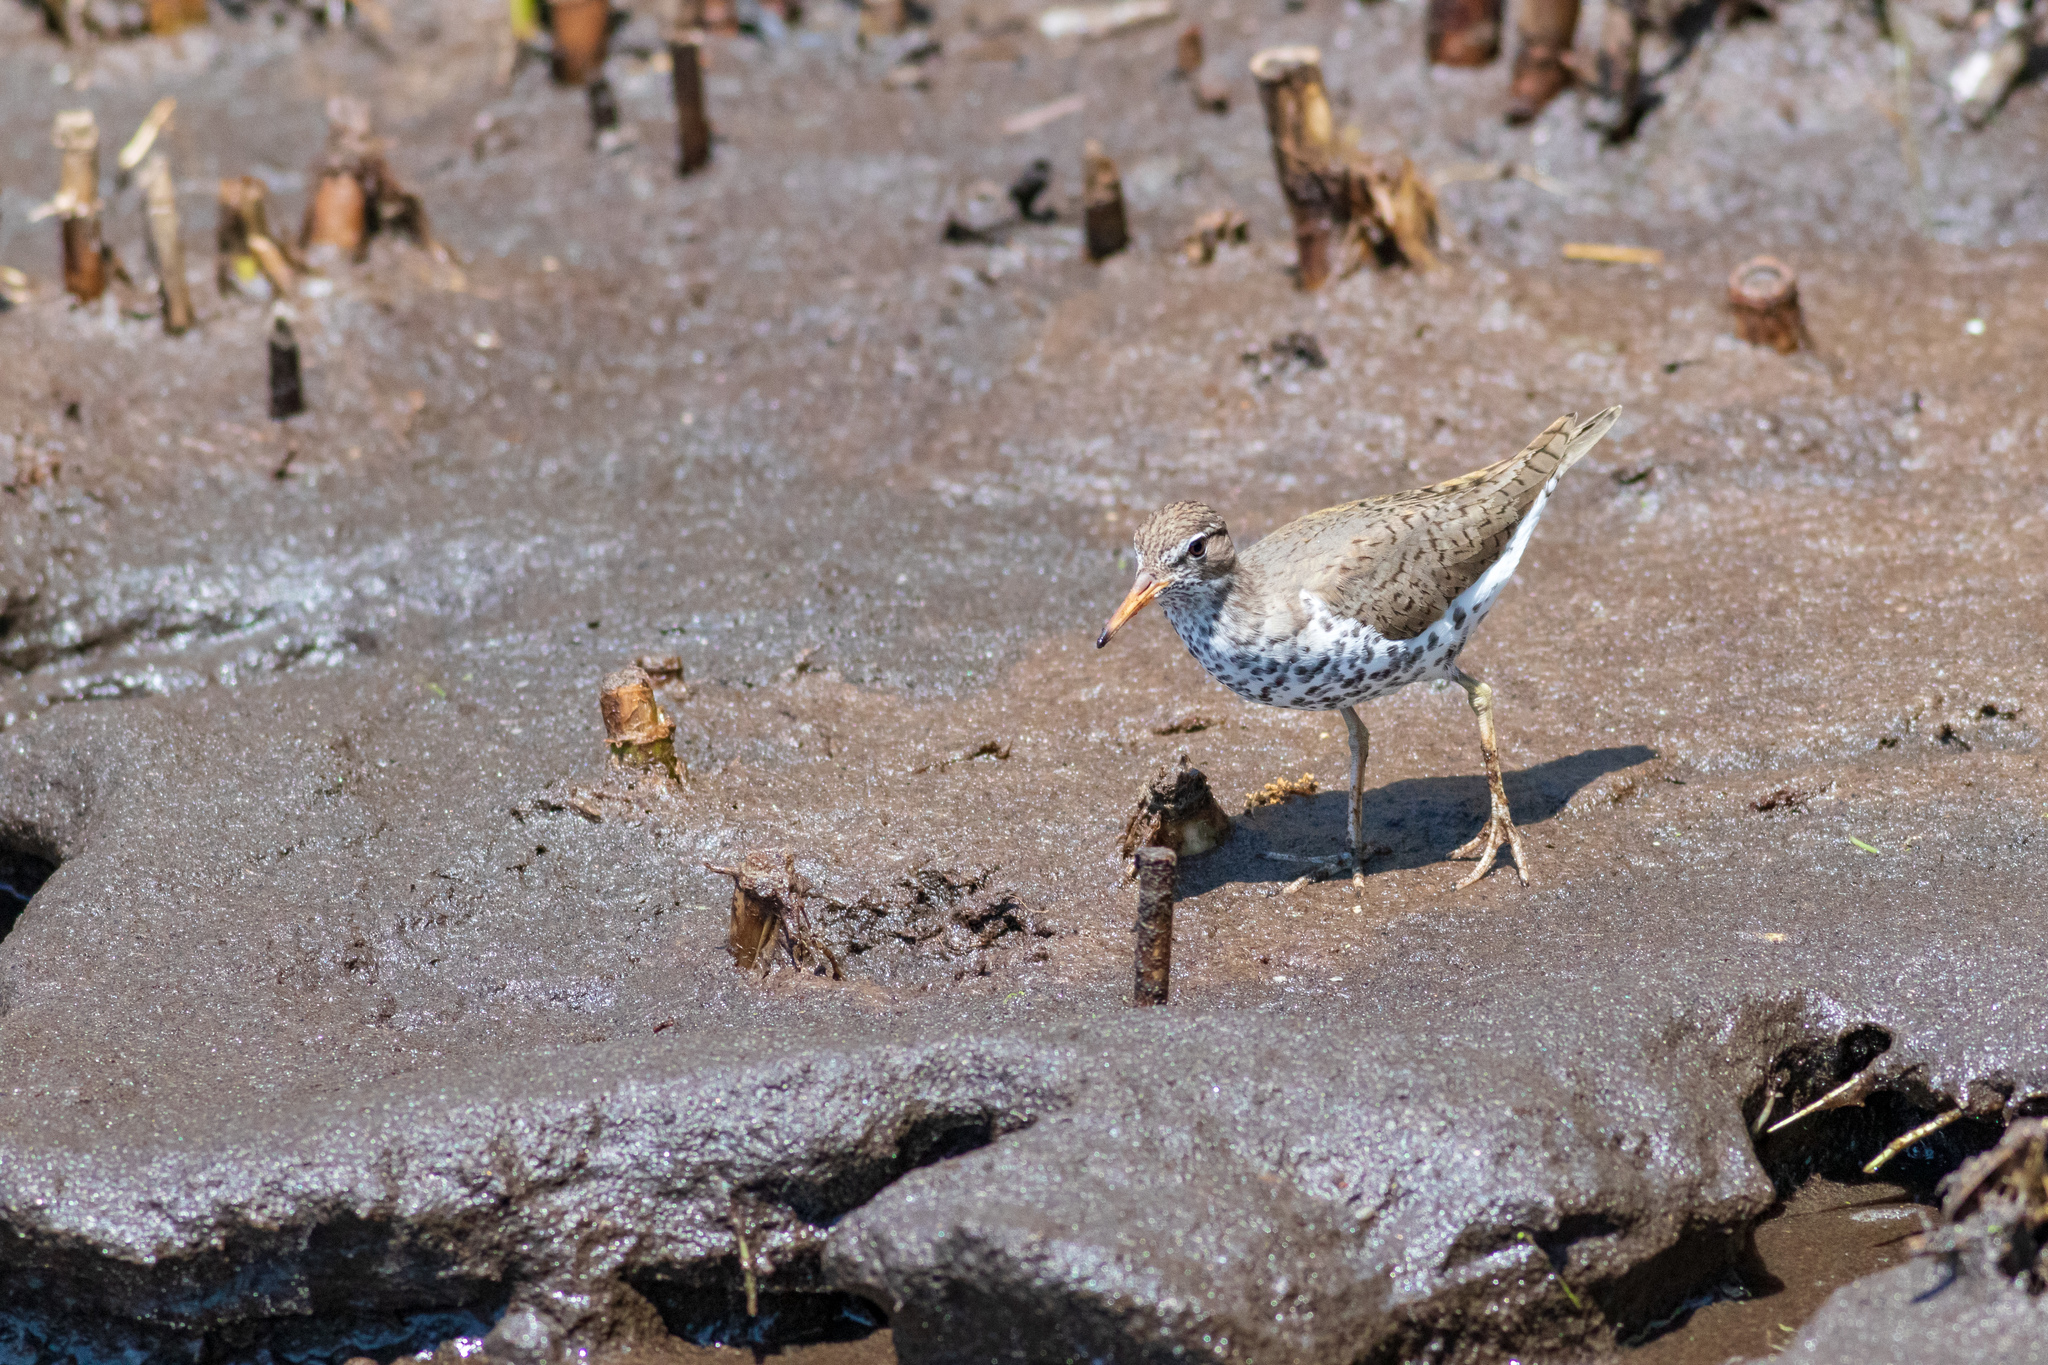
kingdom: Animalia
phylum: Chordata
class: Aves
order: Charadriiformes
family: Scolopacidae
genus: Actitis
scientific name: Actitis macularius
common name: Spotted sandpiper
